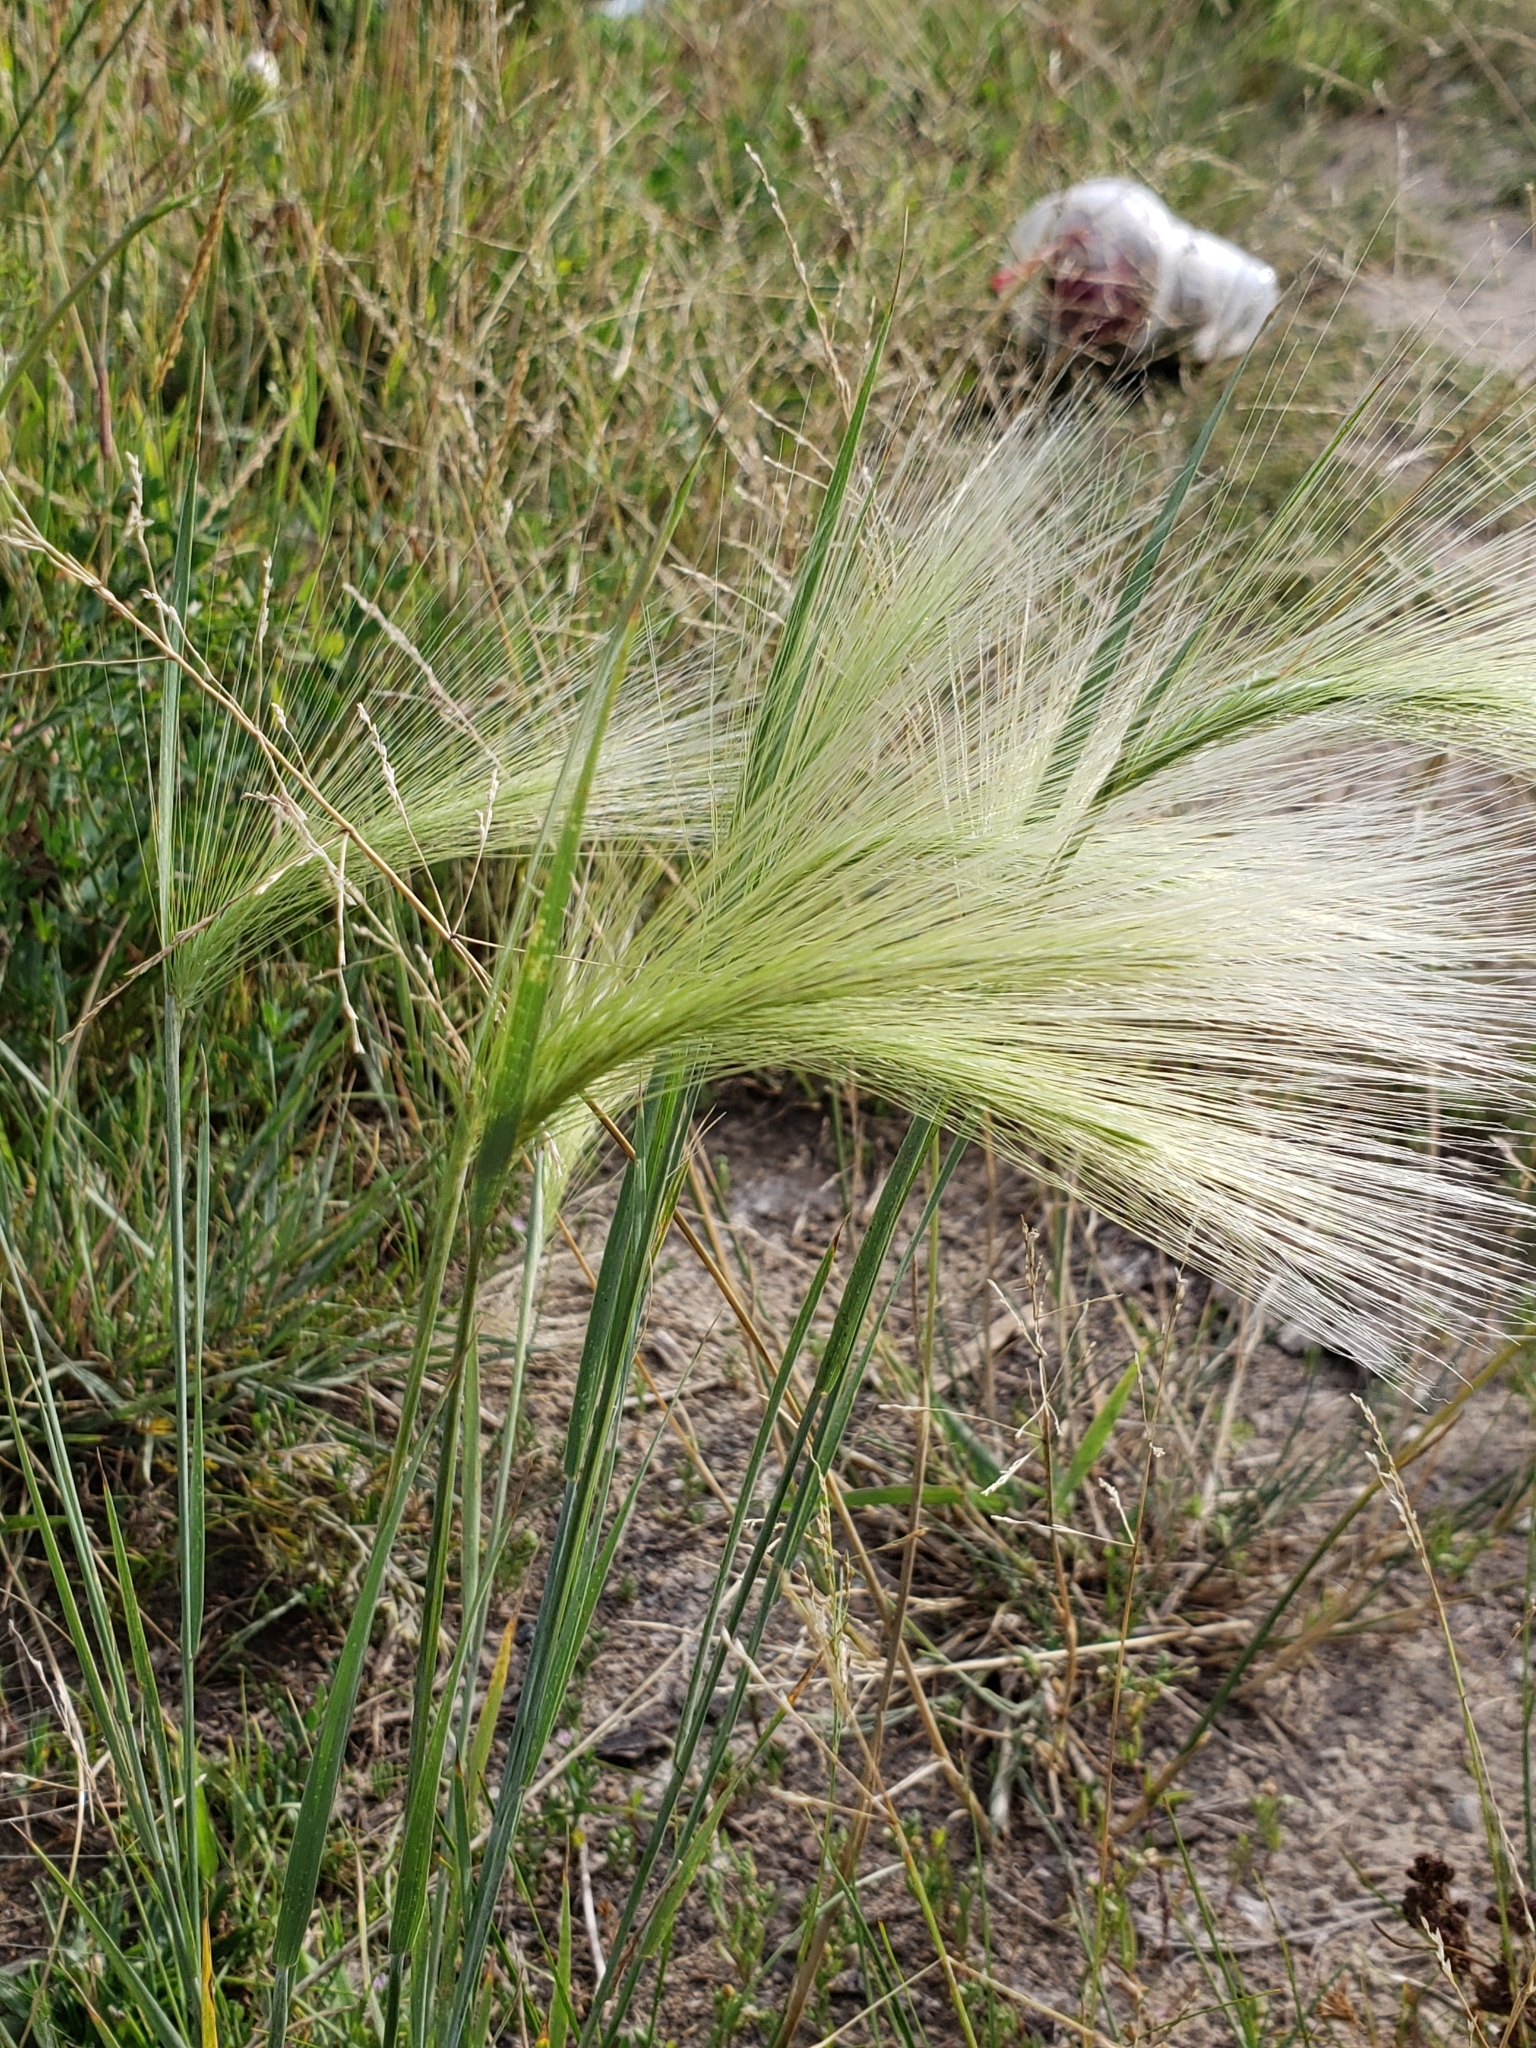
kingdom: Plantae
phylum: Tracheophyta
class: Liliopsida
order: Poales
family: Poaceae
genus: Hordeum
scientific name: Hordeum jubatum
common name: Foxtail barley
